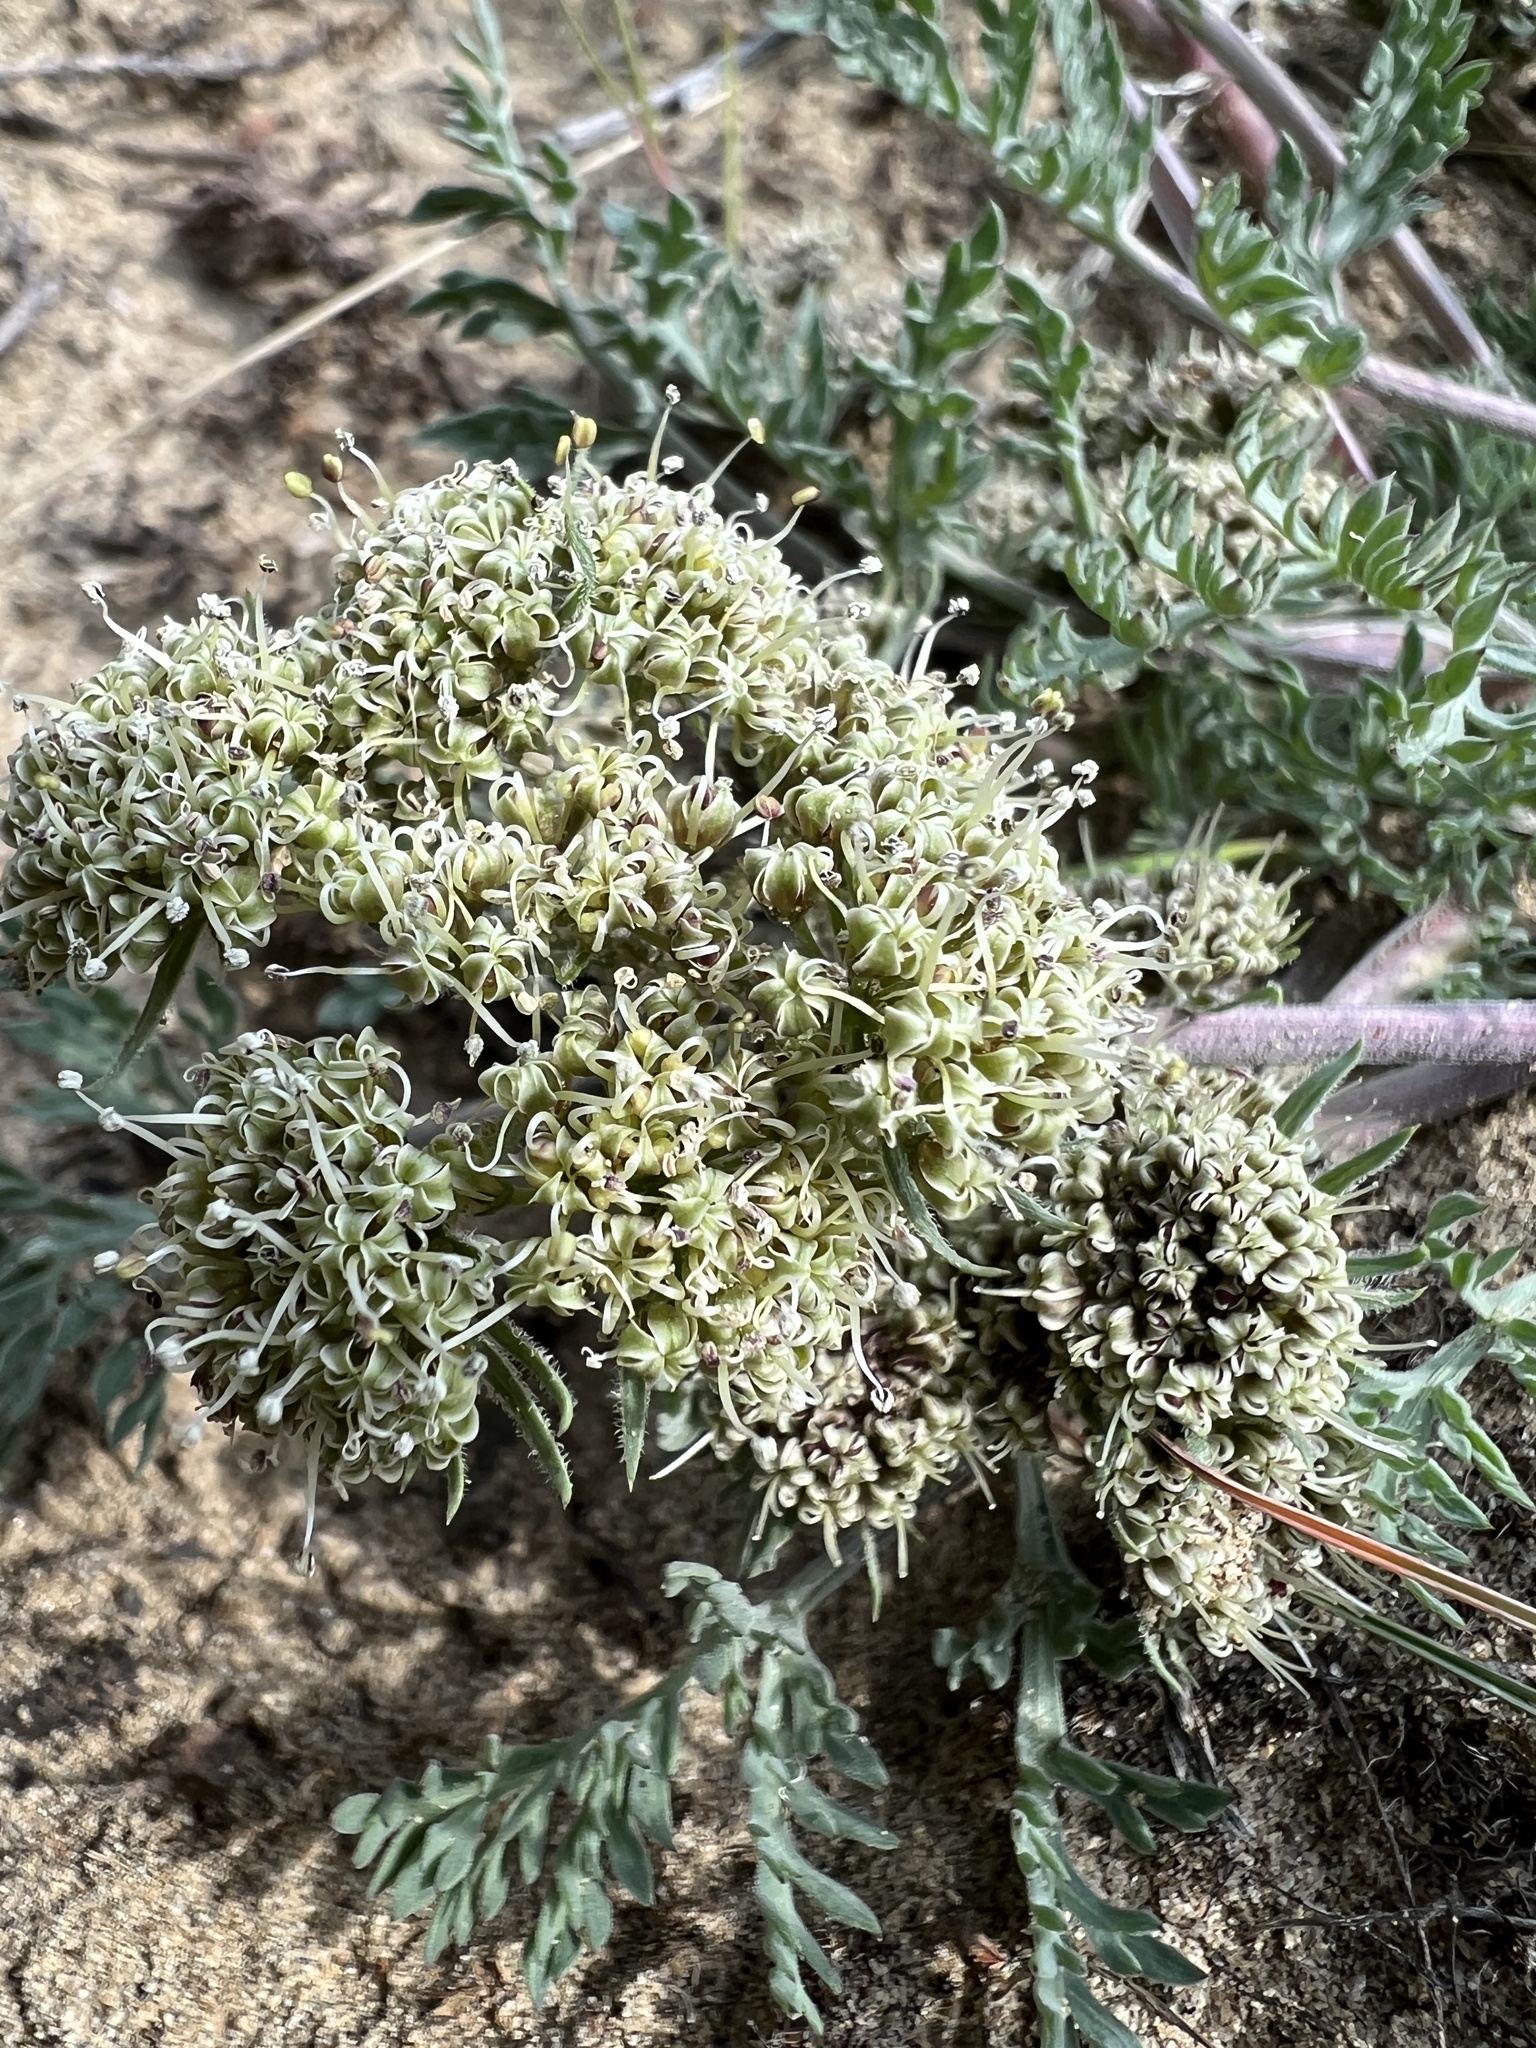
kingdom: Plantae
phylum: Tracheophyta
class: Magnoliopsida
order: Apiales
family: Apiaceae
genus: Lomatium
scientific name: Lomatium macrocarpum
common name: Big-seed biscuitroot
